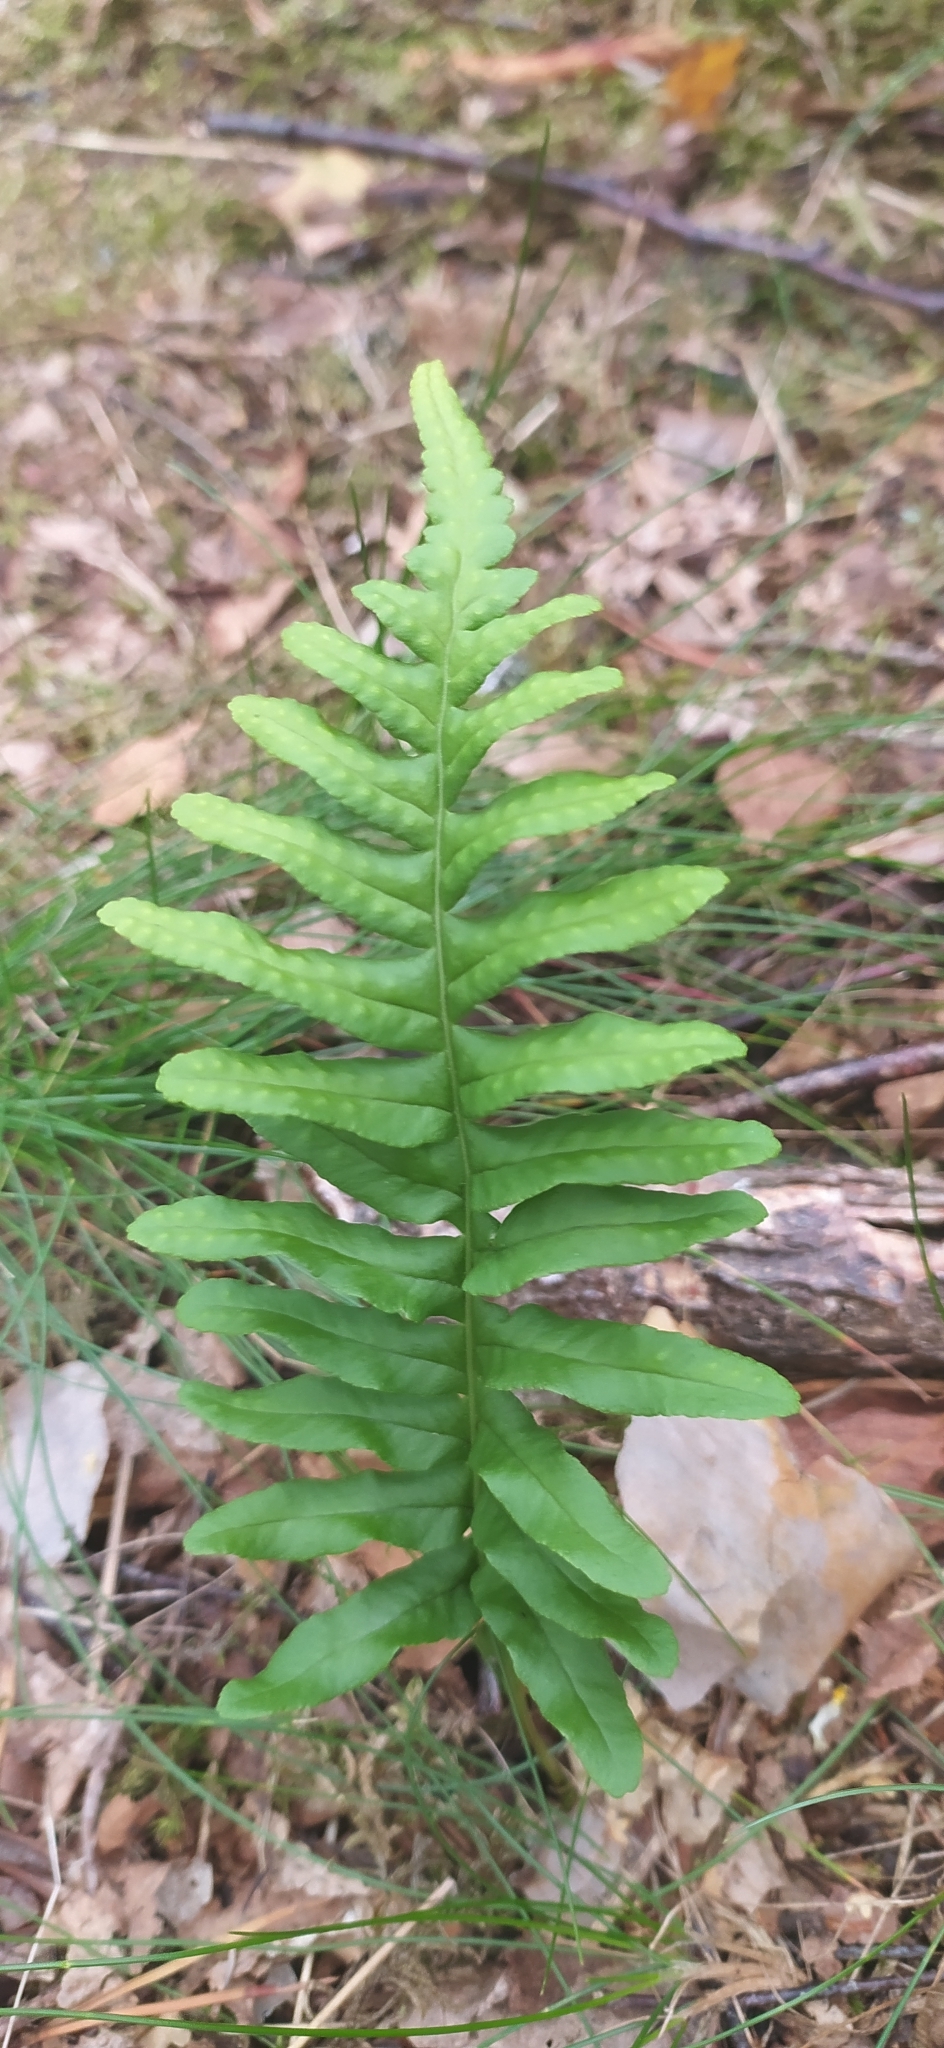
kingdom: Plantae
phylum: Tracheophyta
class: Polypodiopsida
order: Polypodiales
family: Polypodiaceae
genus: Polypodium
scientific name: Polypodium vulgare
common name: Common polypody
